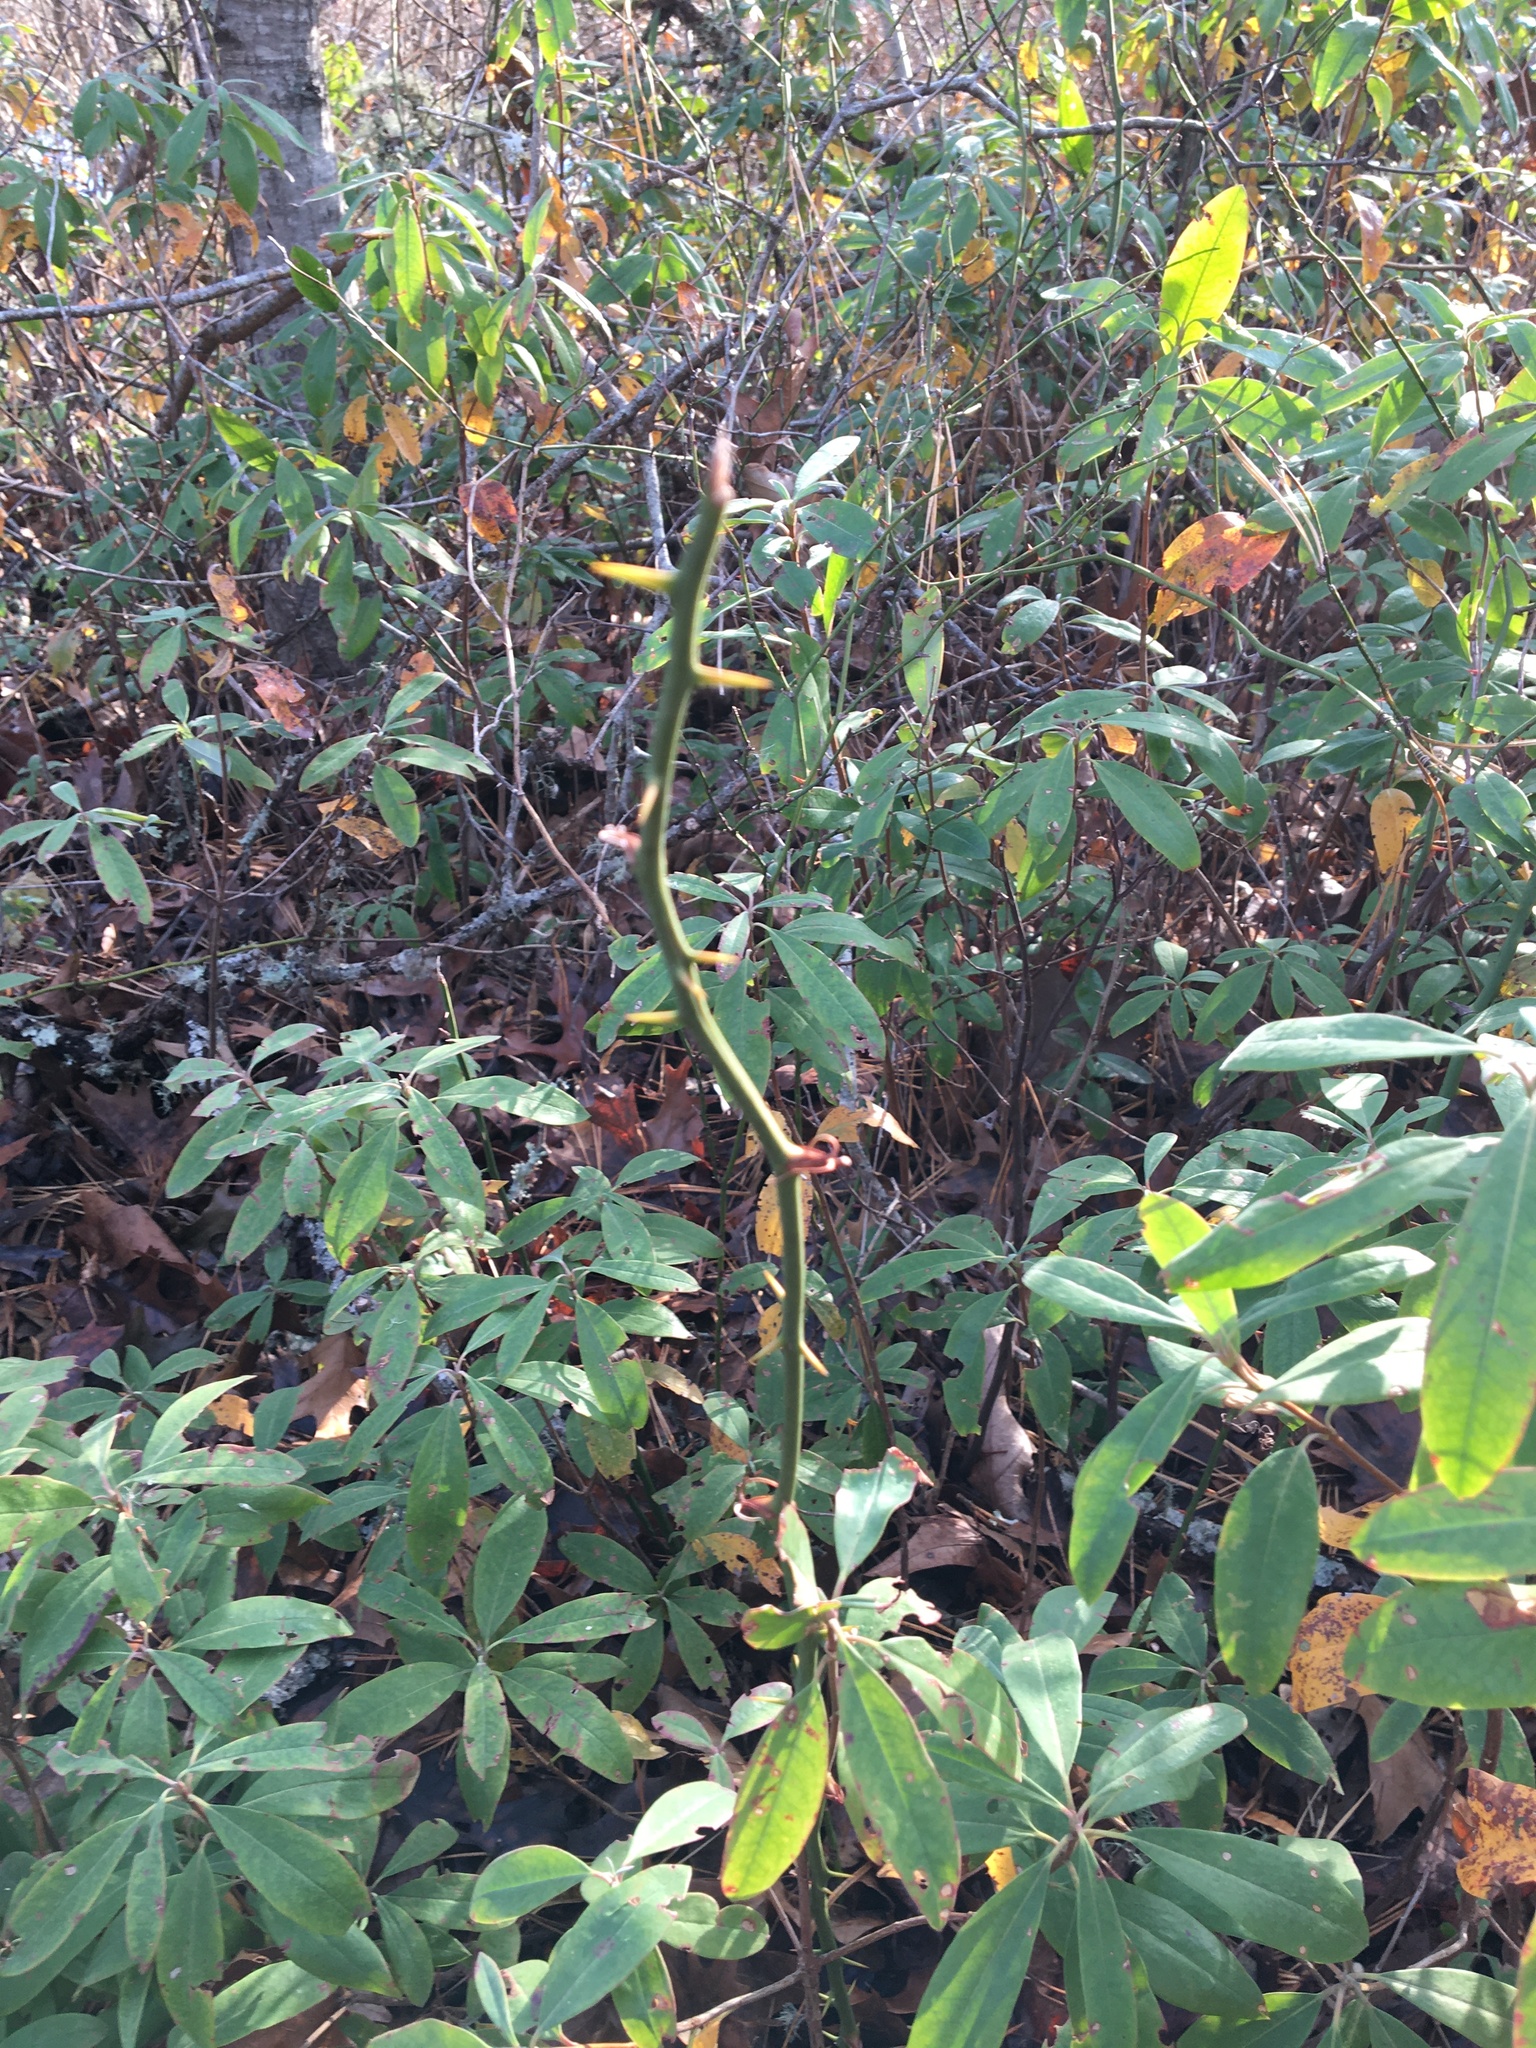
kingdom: Plantae
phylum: Tracheophyta
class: Magnoliopsida
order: Ericales
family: Ericaceae
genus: Kalmia
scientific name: Kalmia angustifolia
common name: Sheep-laurel
